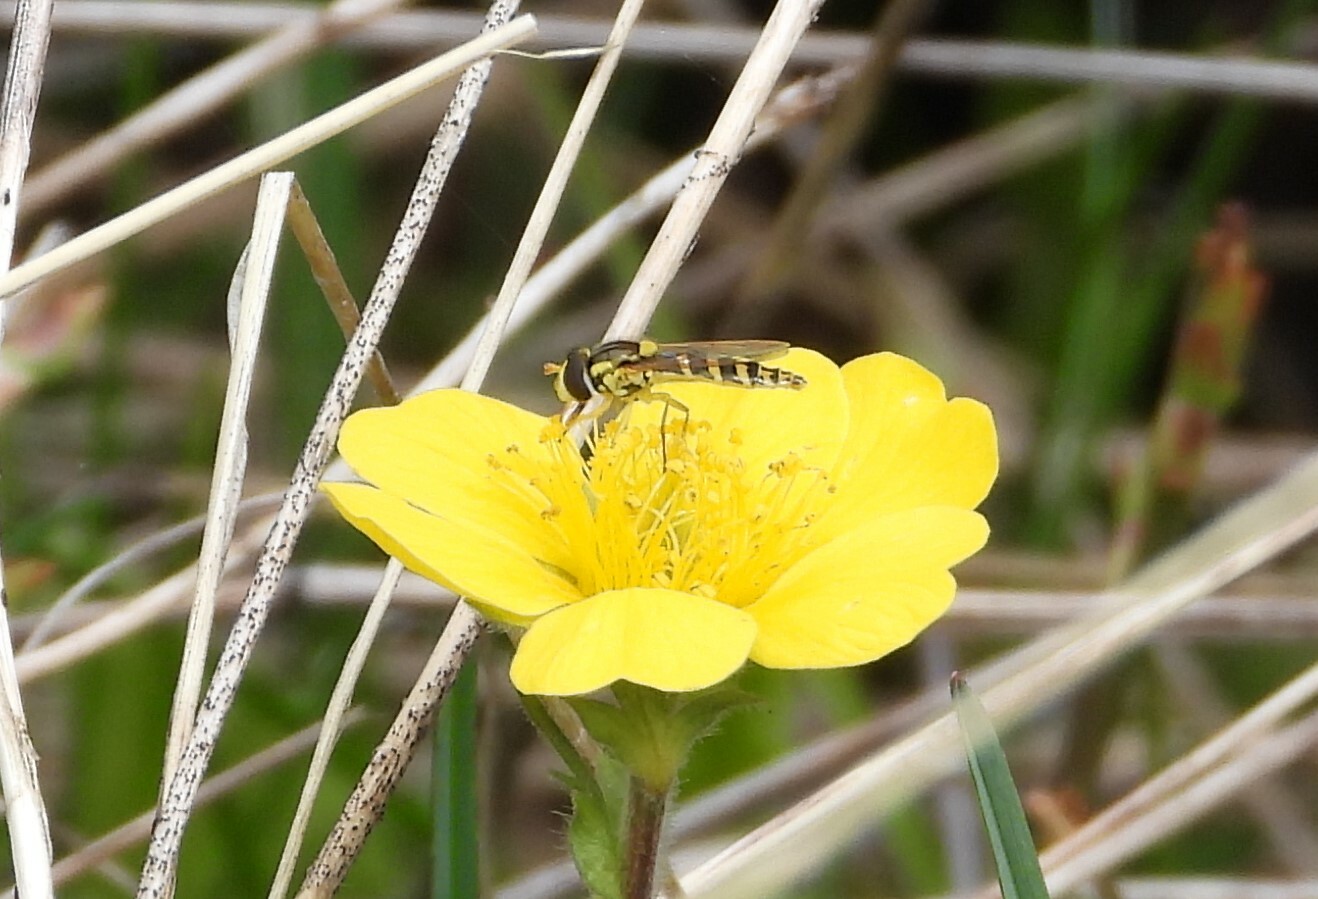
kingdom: Animalia
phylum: Arthropoda
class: Insecta
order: Diptera
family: Syrphidae
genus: Sphaerophoria
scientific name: Sphaerophoria
